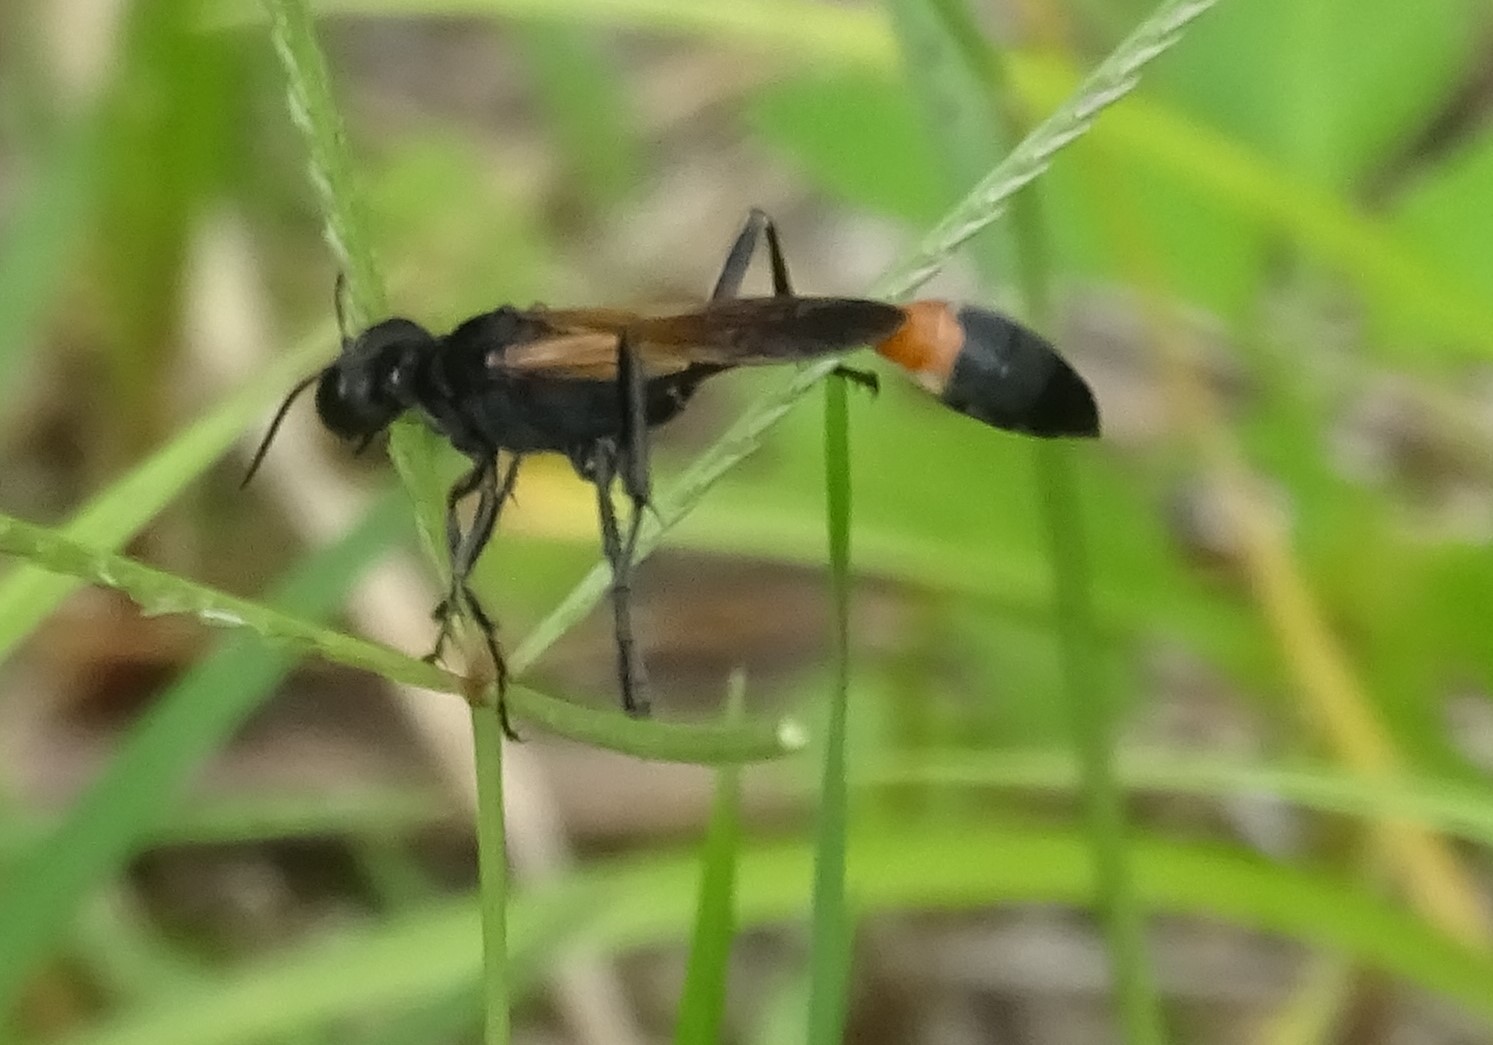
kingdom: Animalia
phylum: Arthropoda
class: Insecta
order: Hymenoptera
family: Sphecidae
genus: Ammophila
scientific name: Ammophila pictipennis
